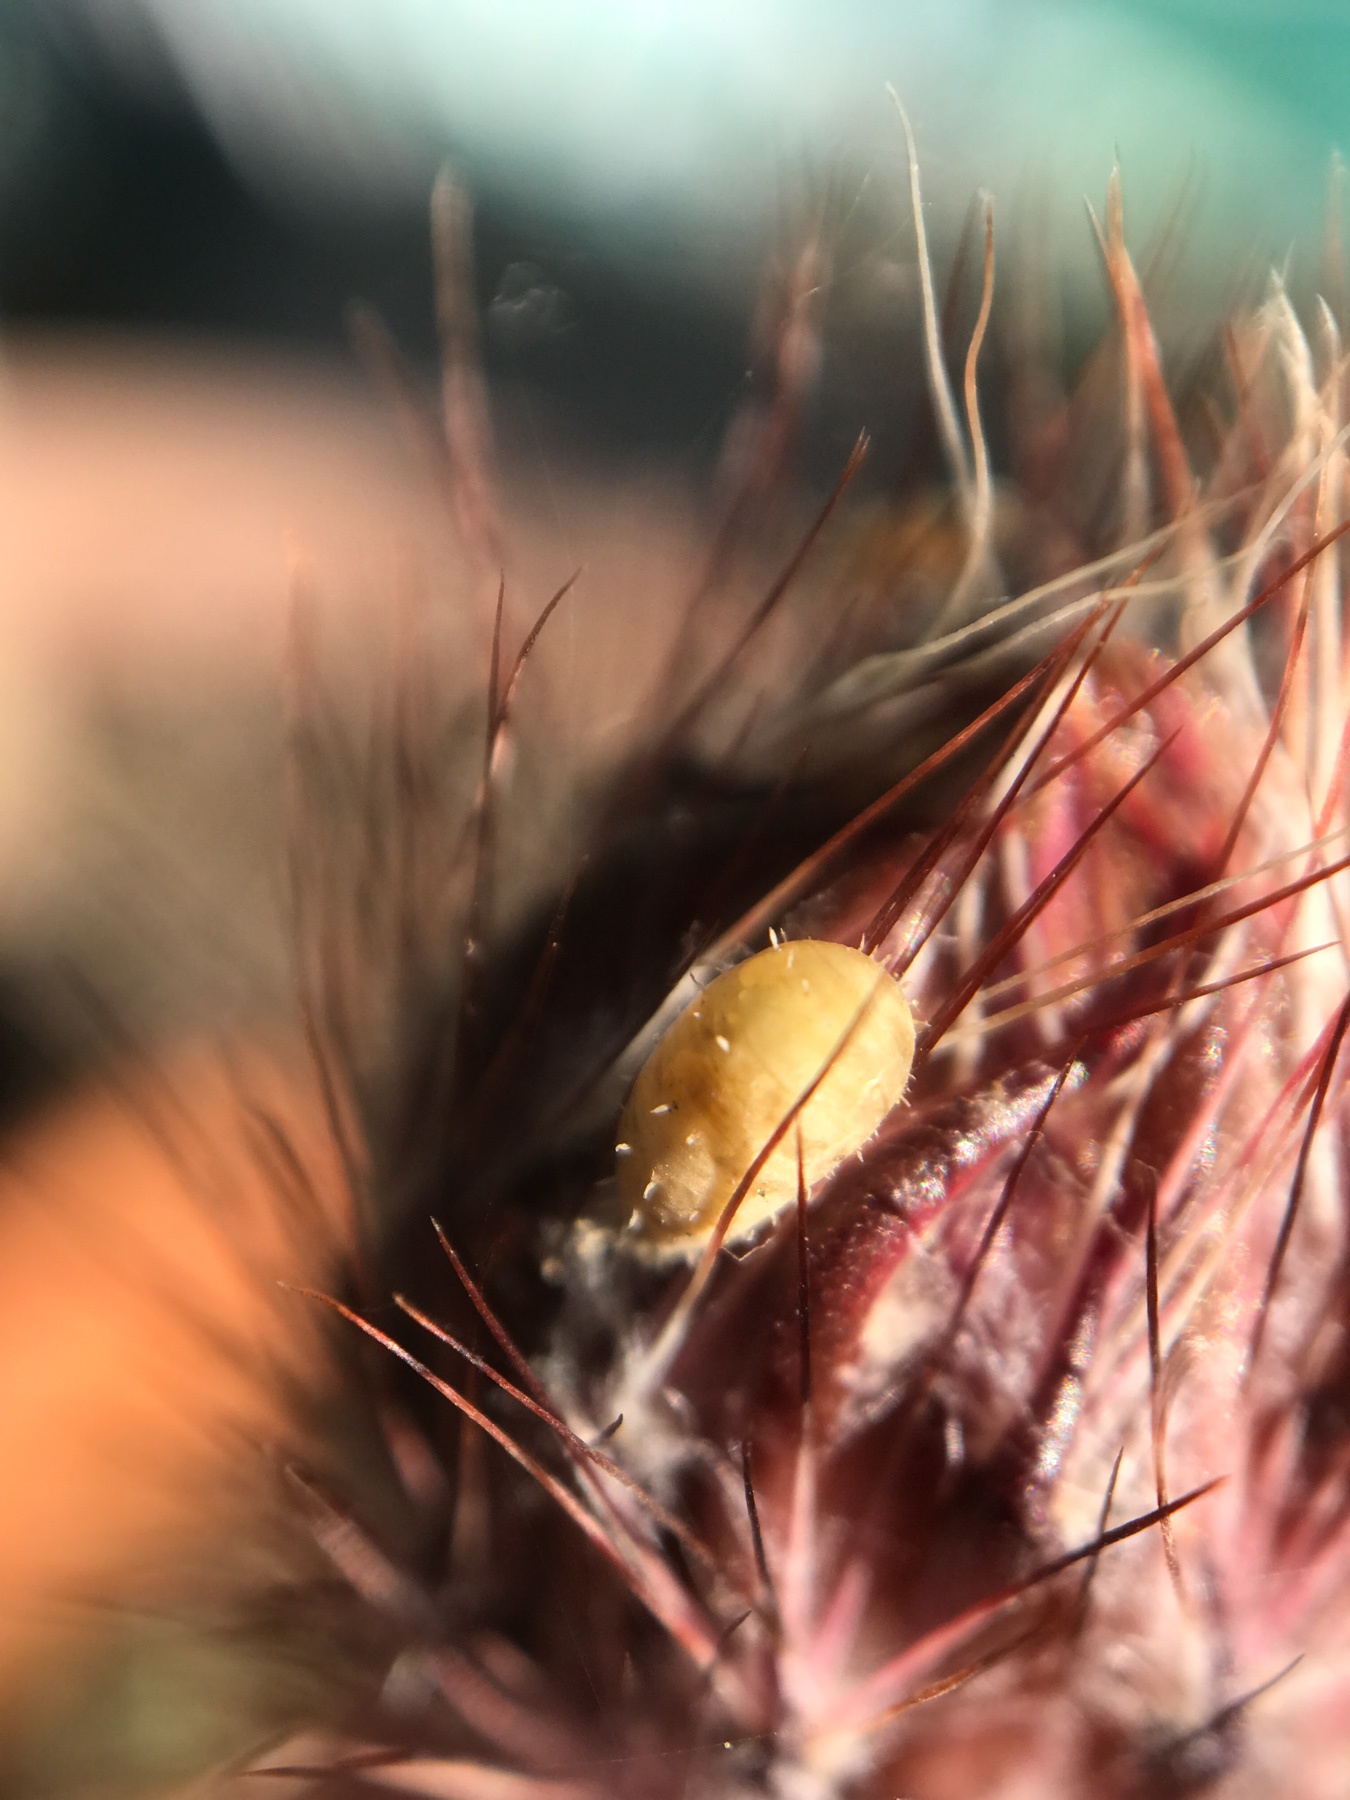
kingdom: Animalia
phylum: Arthropoda
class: Insecta
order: Diptera
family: Syrphidae
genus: Dioprosopa
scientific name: Dioprosopa clavatus
